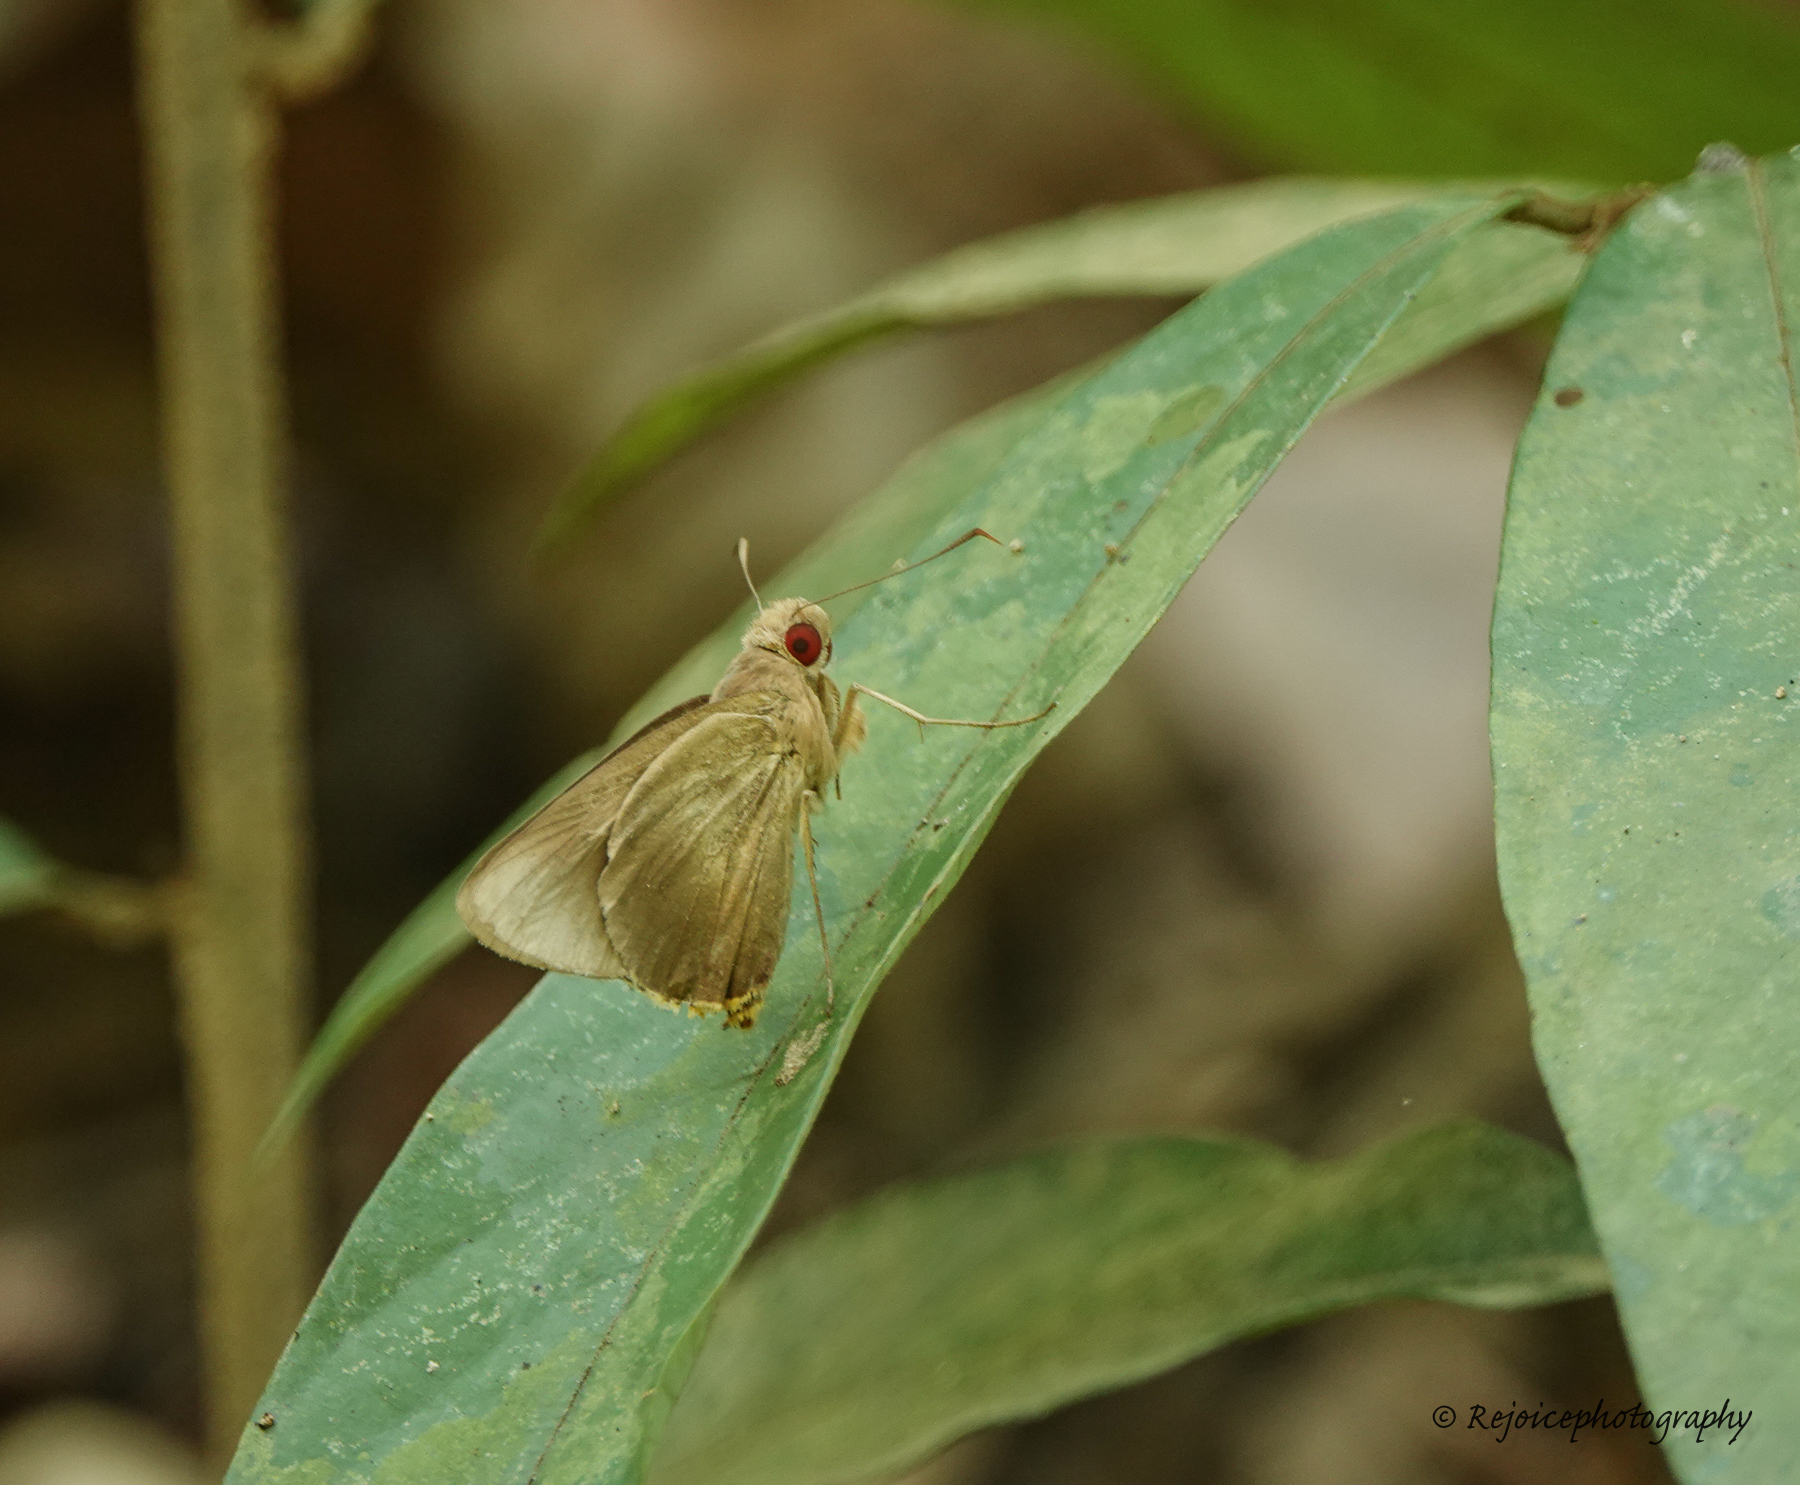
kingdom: Animalia
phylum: Arthropoda
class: Insecta
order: Lepidoptera
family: Hesperiidae
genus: Matapa
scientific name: Matapa aria
